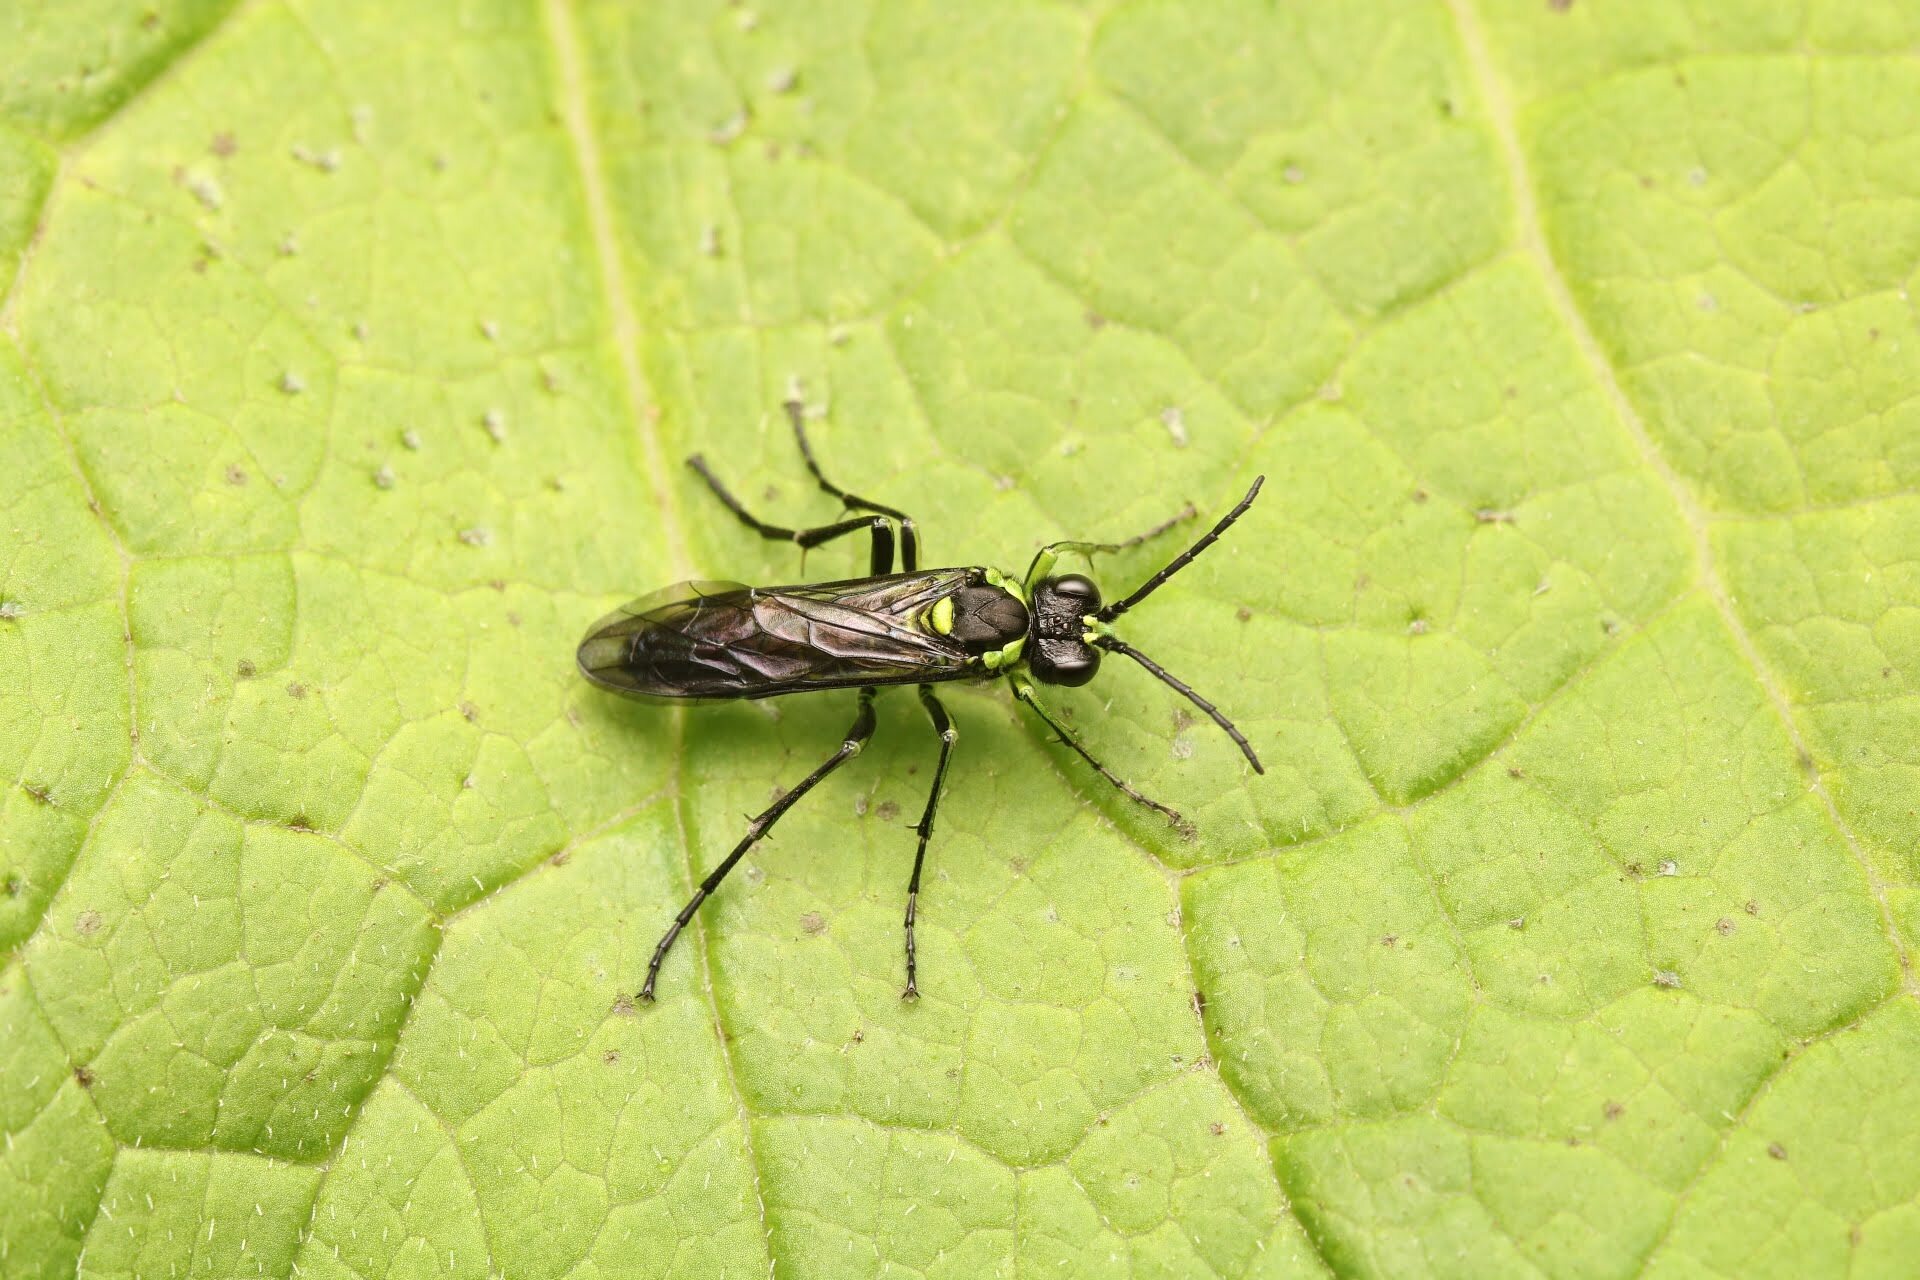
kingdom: Animalia
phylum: Arthropoda
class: Insecta
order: Hymenoptera
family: Tenthredinidae
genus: Tenthredo
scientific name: Tenthredo mesomela
